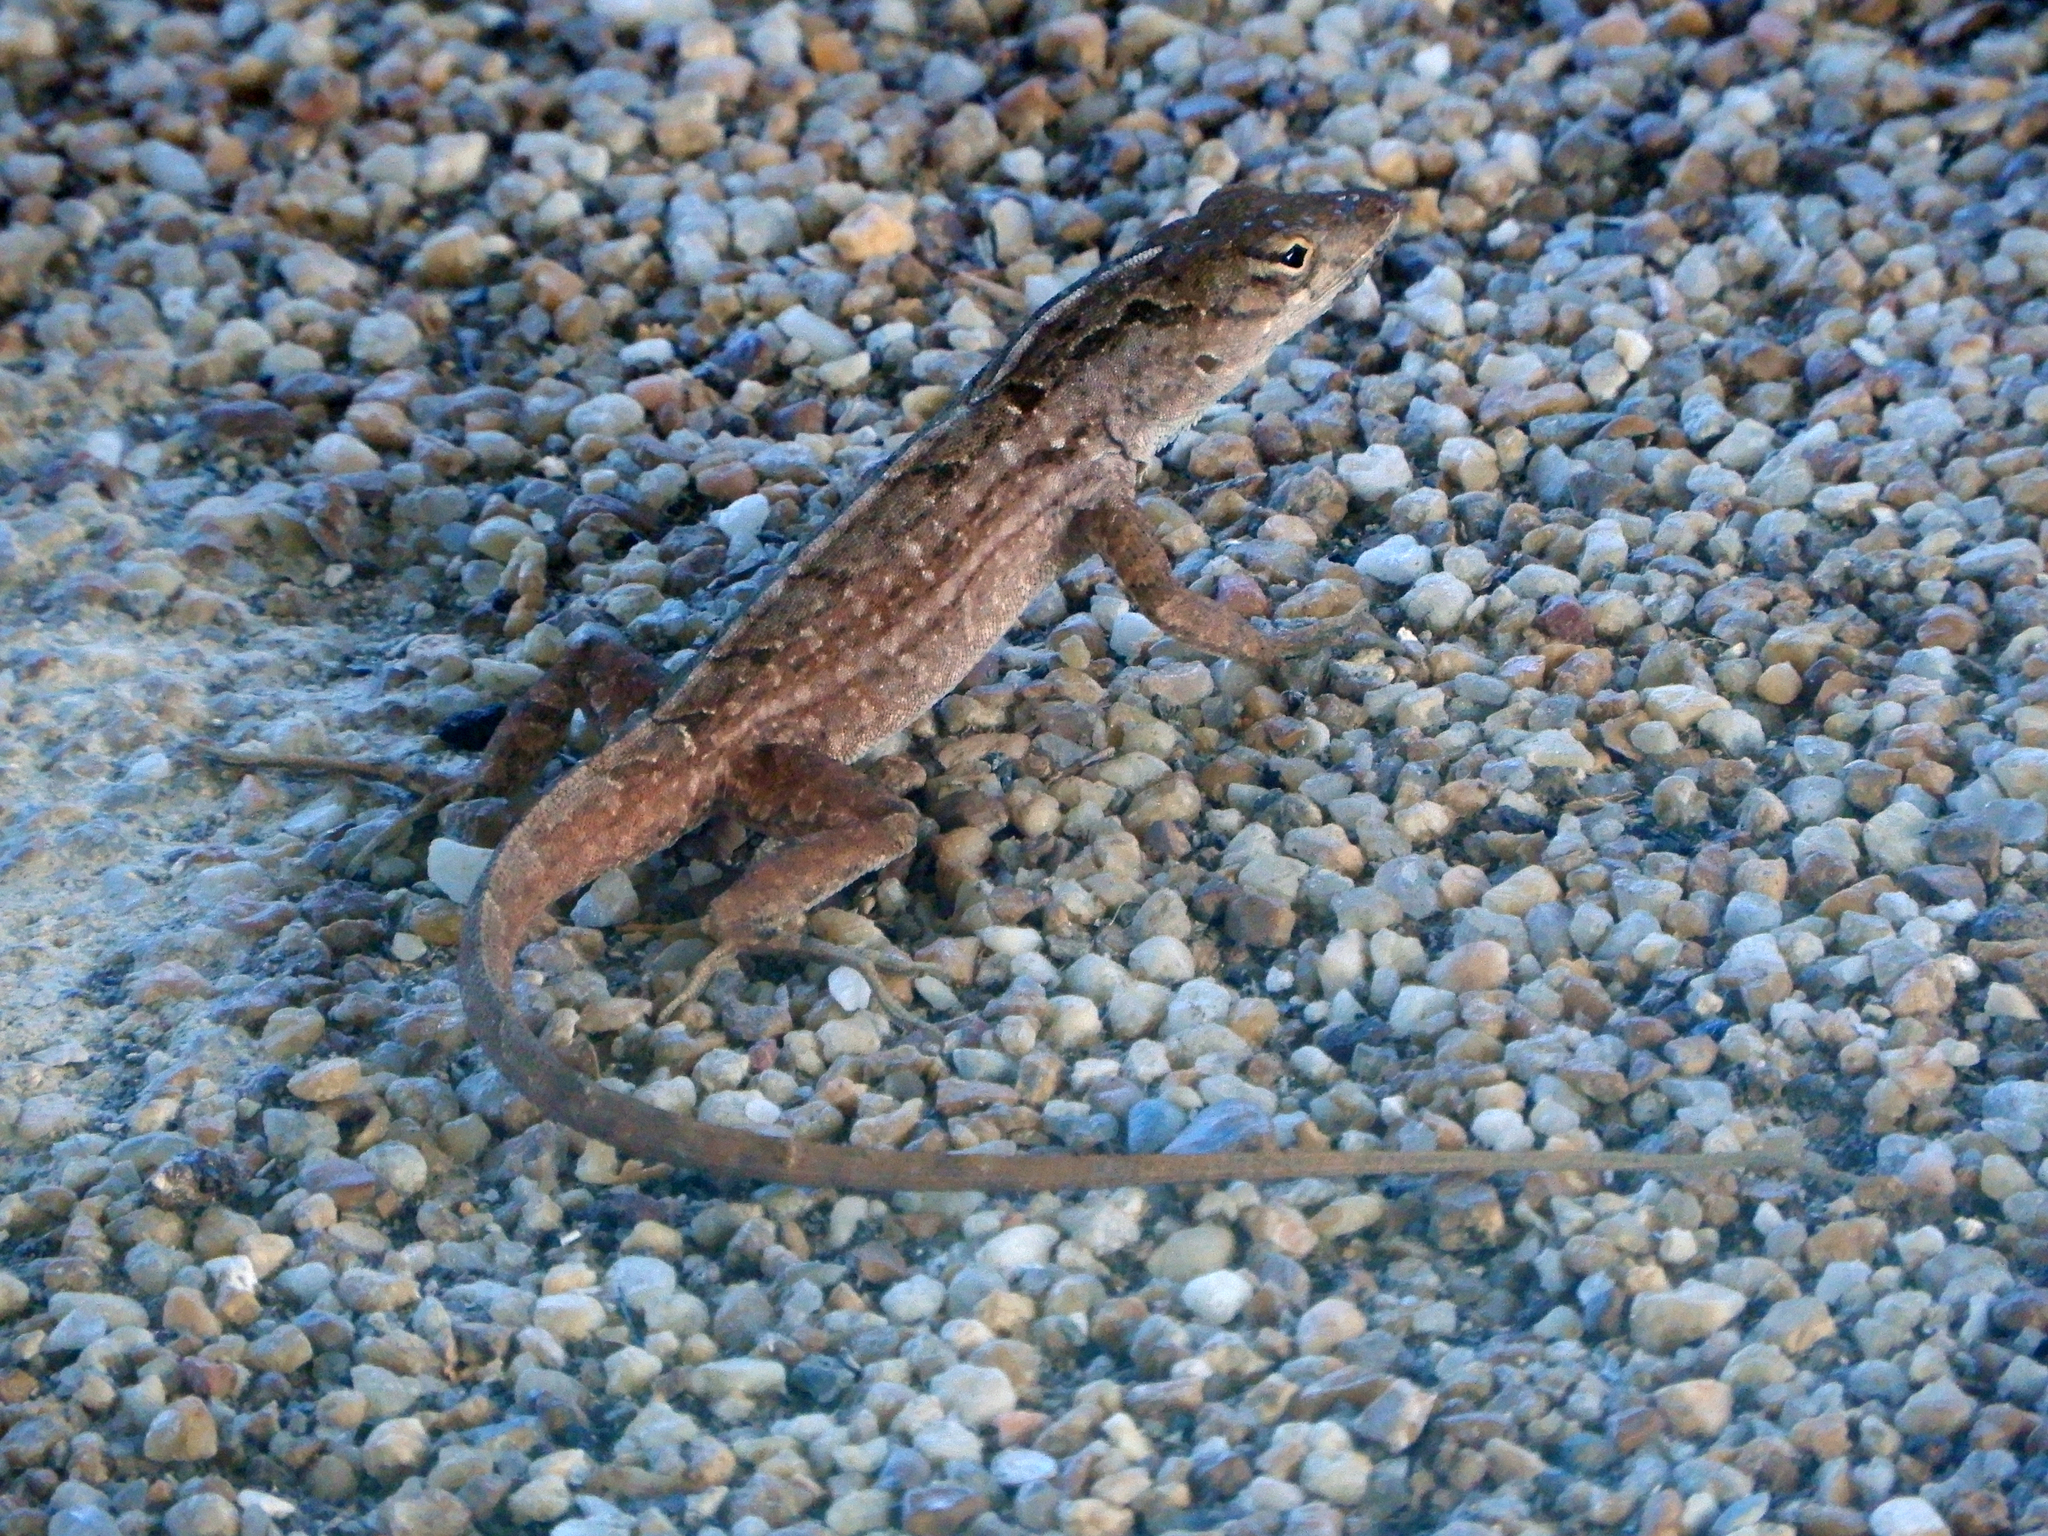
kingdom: Animalia
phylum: Chordata
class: Squamata
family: Dactyloidae
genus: Anolis
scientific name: Anolis sagrei
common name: Brown anole
